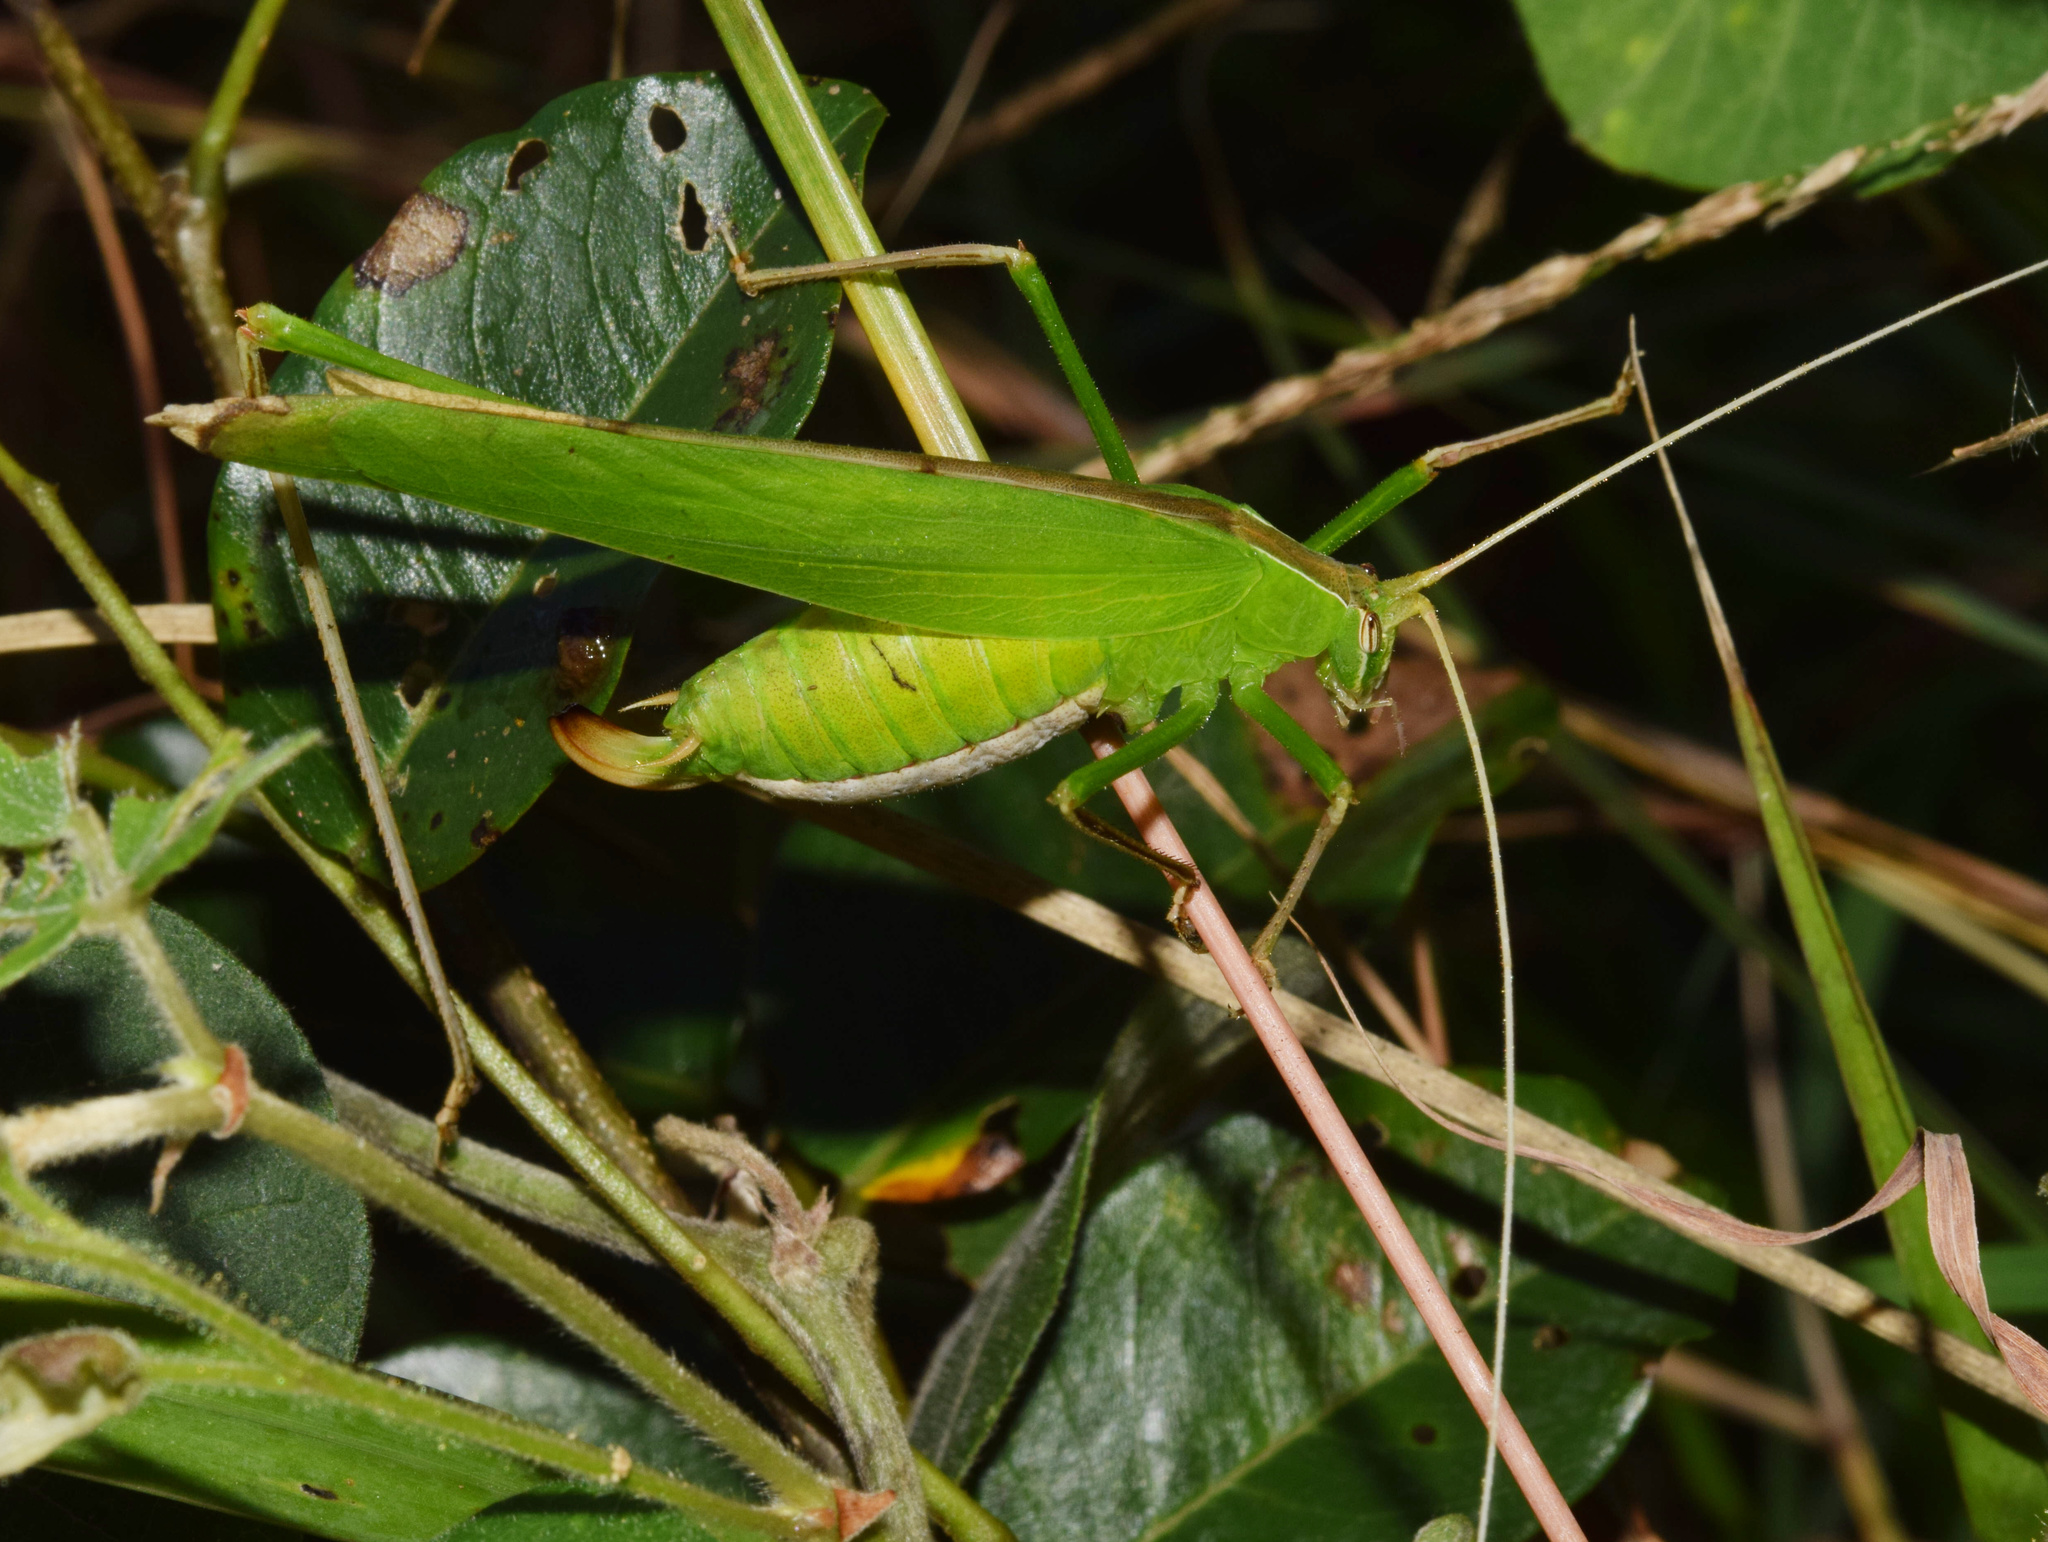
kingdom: Animalia
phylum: Arthropoda
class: Insecta
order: Orthoptera
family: Tettigoniidae
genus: Tylopsis
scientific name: Tylopsis continua
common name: Common grass katydid
